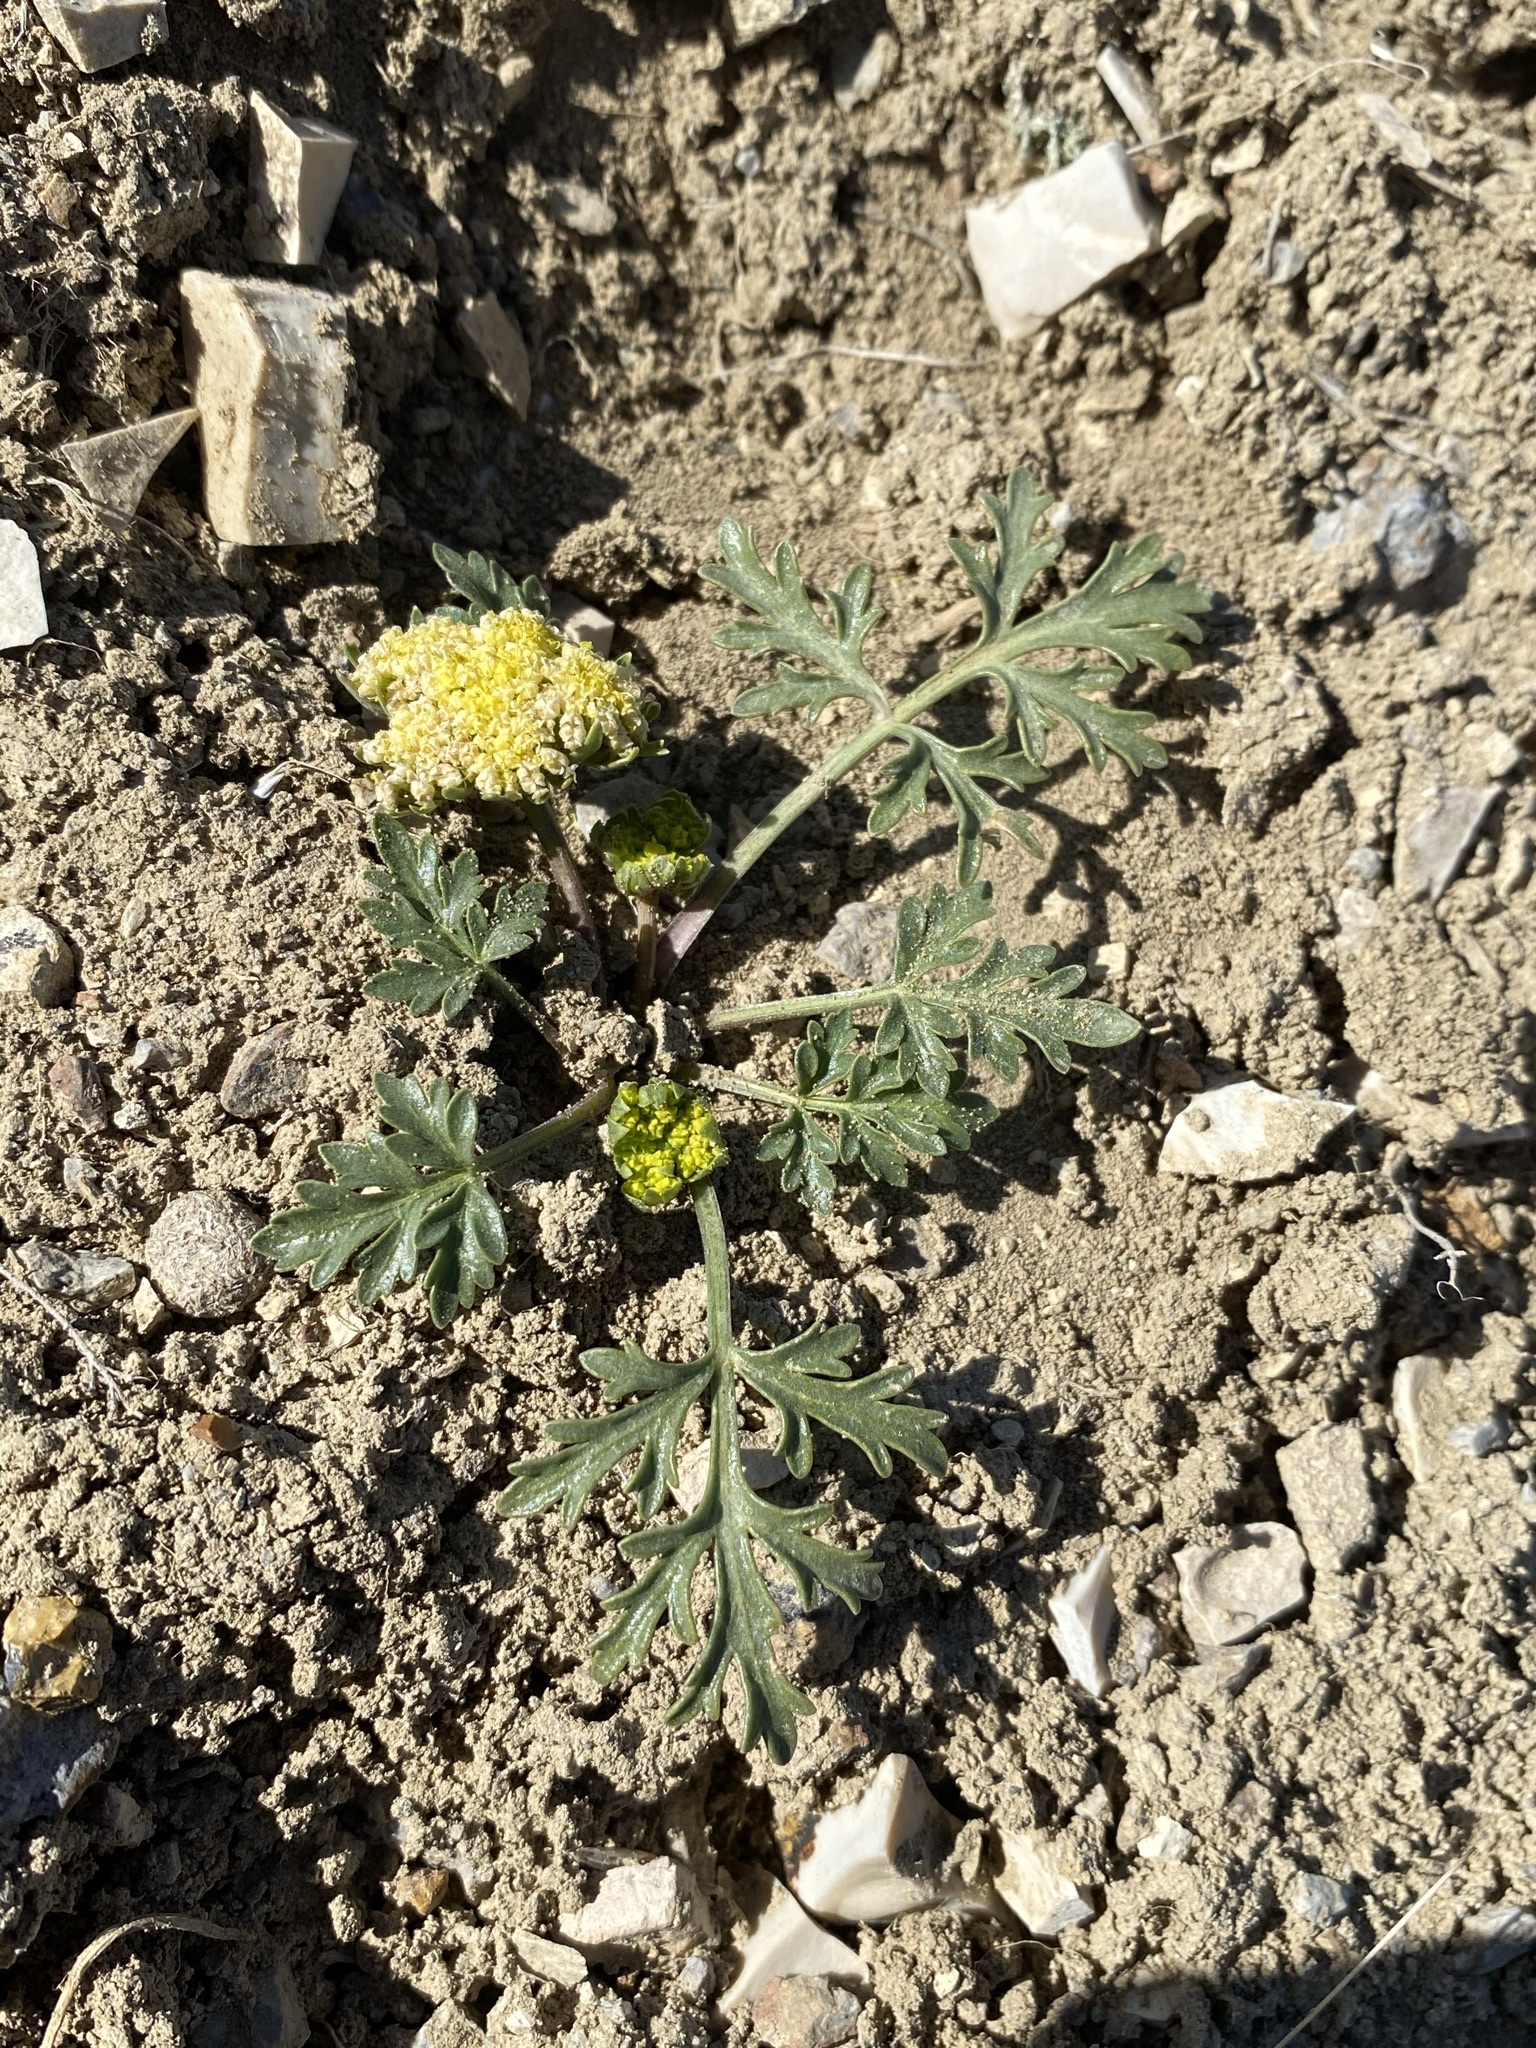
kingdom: Plantae
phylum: Tracheophyta
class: Magnoliopsida
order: Apiales
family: Apiaceae
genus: Cymopterus
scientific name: Cymopterus glomeratus
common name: Plains spring parsley
